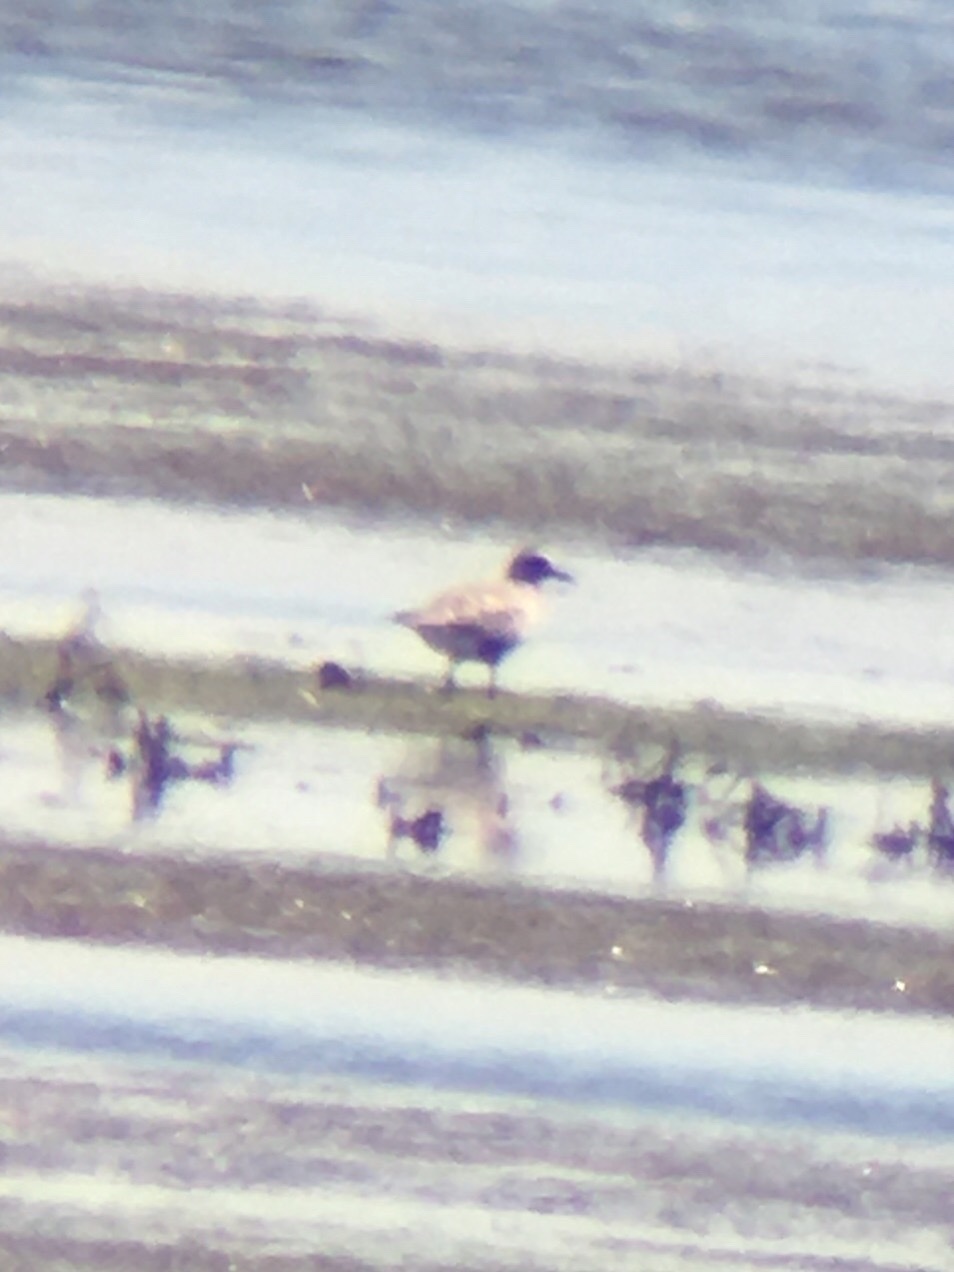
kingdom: Animalia
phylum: Chordata
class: Aves
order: Charadriiformes
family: Charadriidae
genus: Pluvialis
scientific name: Pluvialis squatarola
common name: Grey plover
